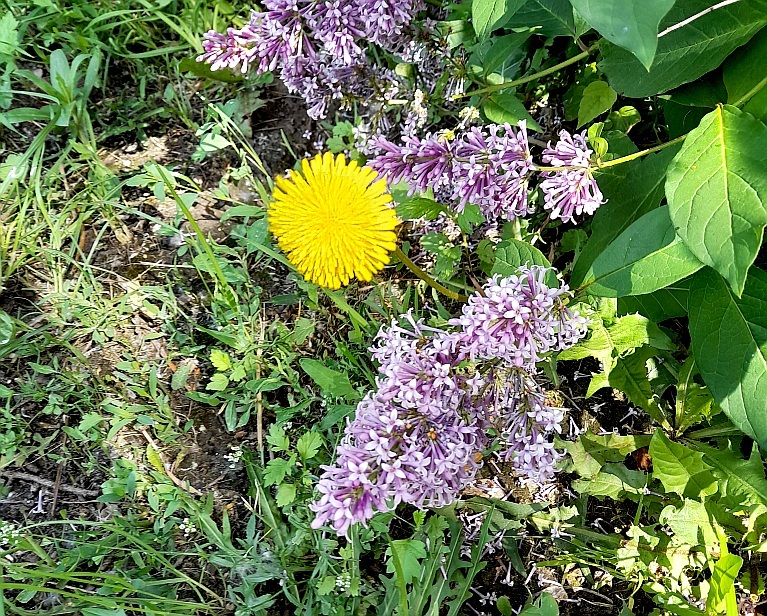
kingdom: Plantae
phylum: Tracheophyta
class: Magnoliopsida
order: Asterales
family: Asteraceae
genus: Taraxacum
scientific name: Taraxacum officinale
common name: Common dandelion
